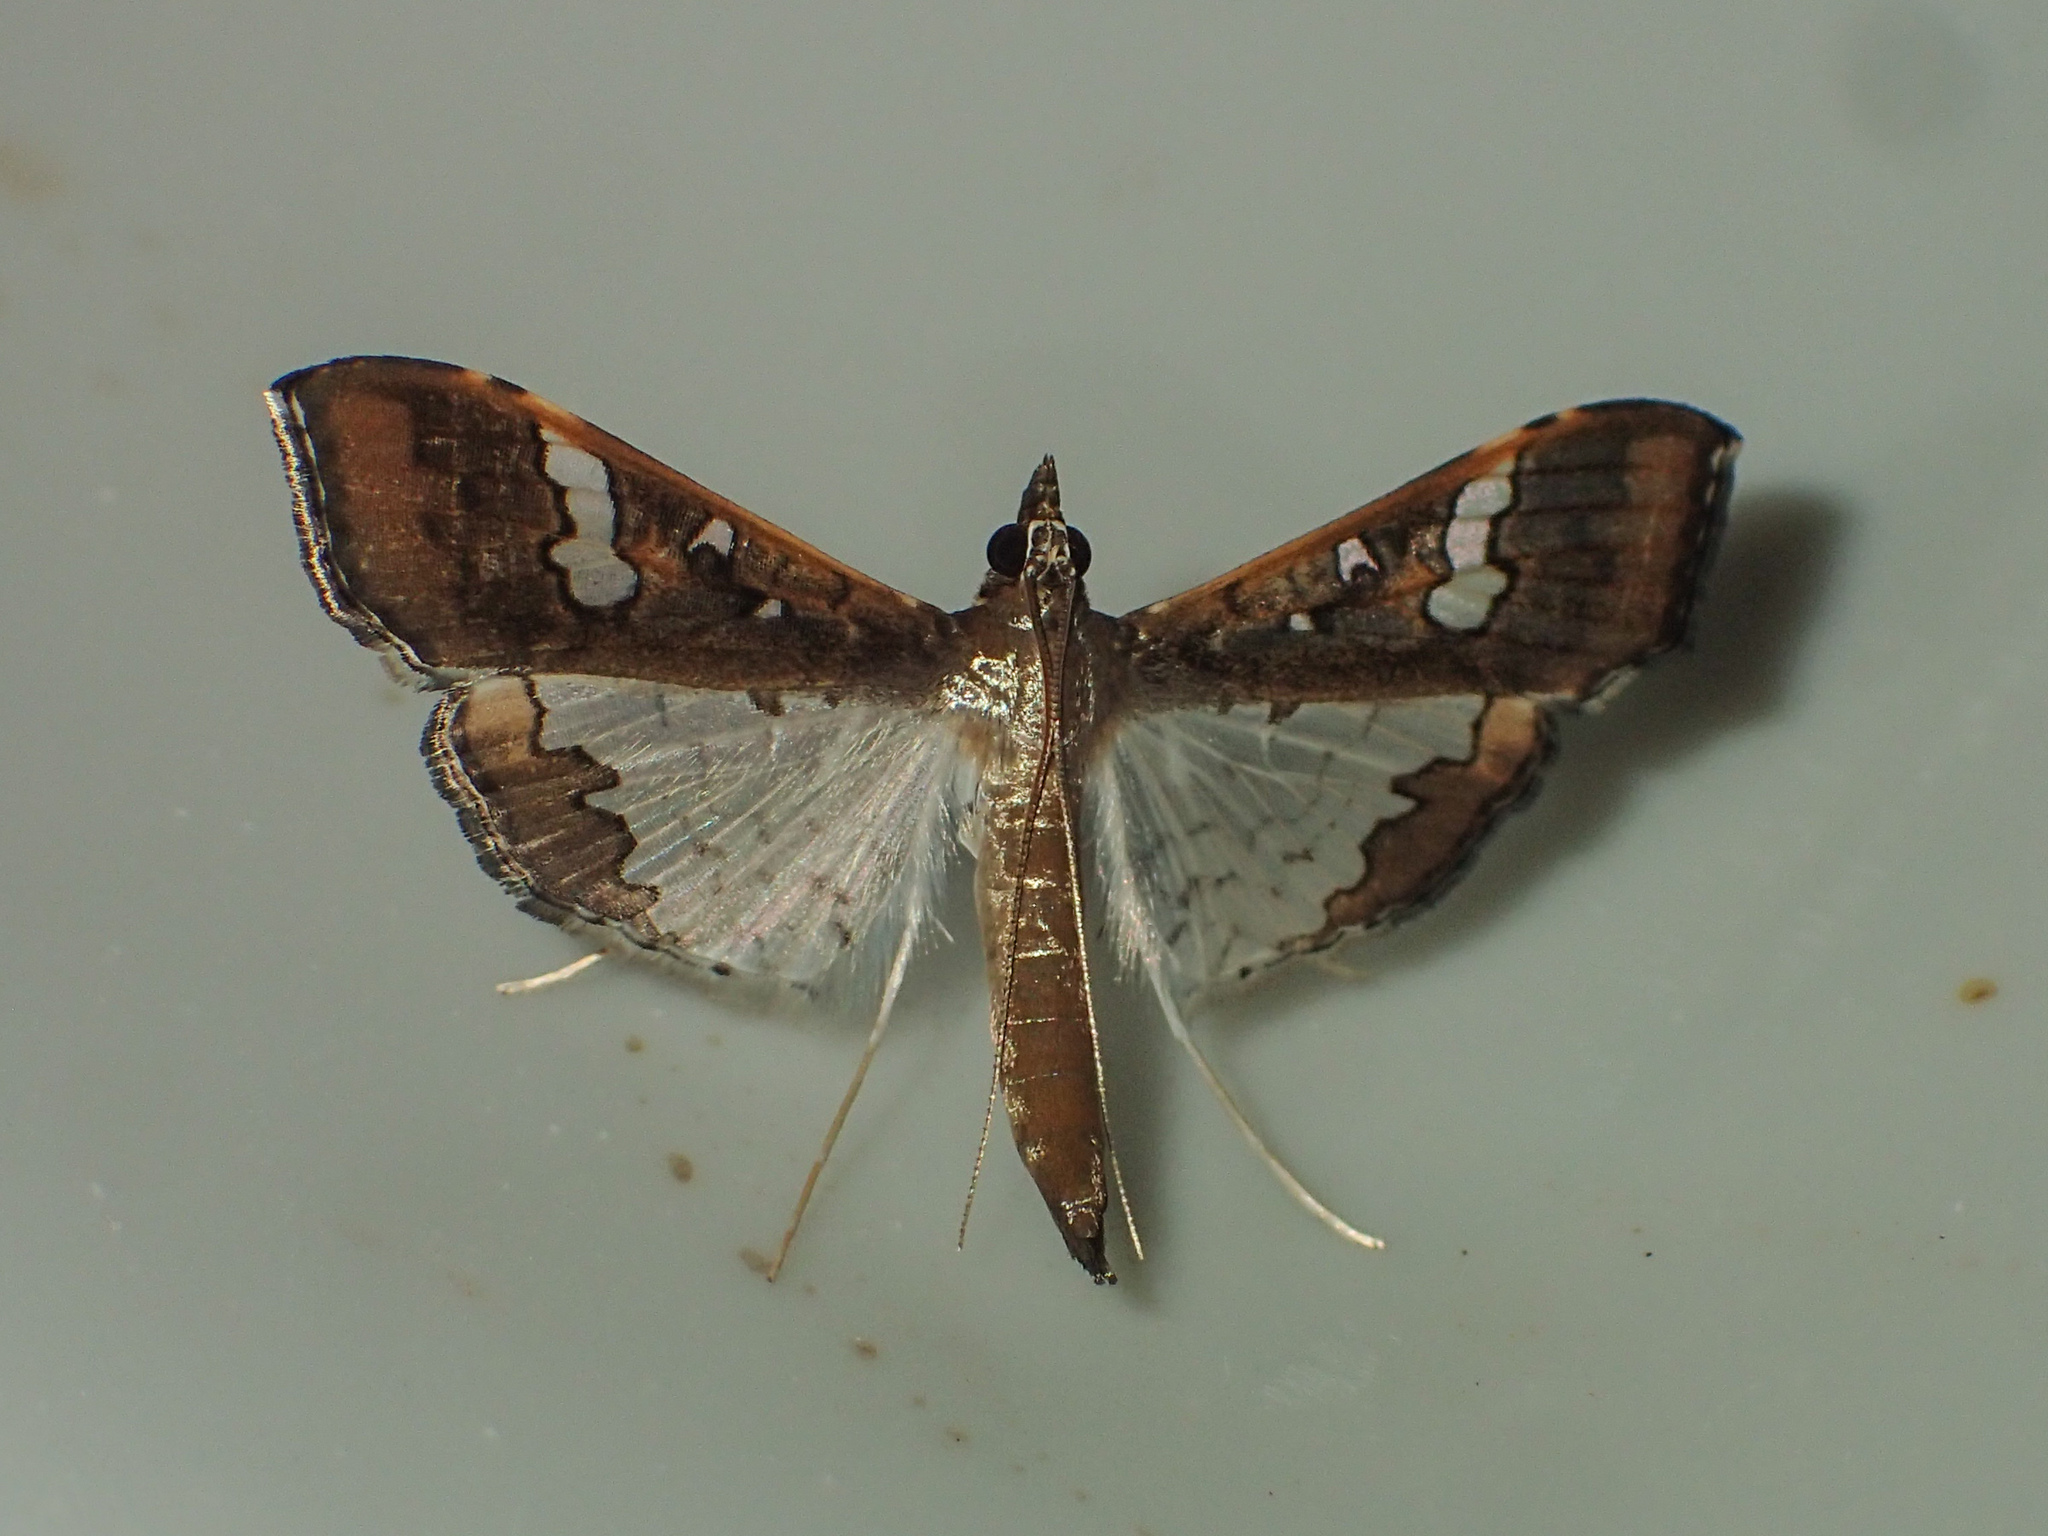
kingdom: Animalia
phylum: Arthropoda
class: Insecta
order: Lepidoptera
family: Crambidae
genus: Maruca
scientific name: Maruca vitrata
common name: Maruca pod borer
